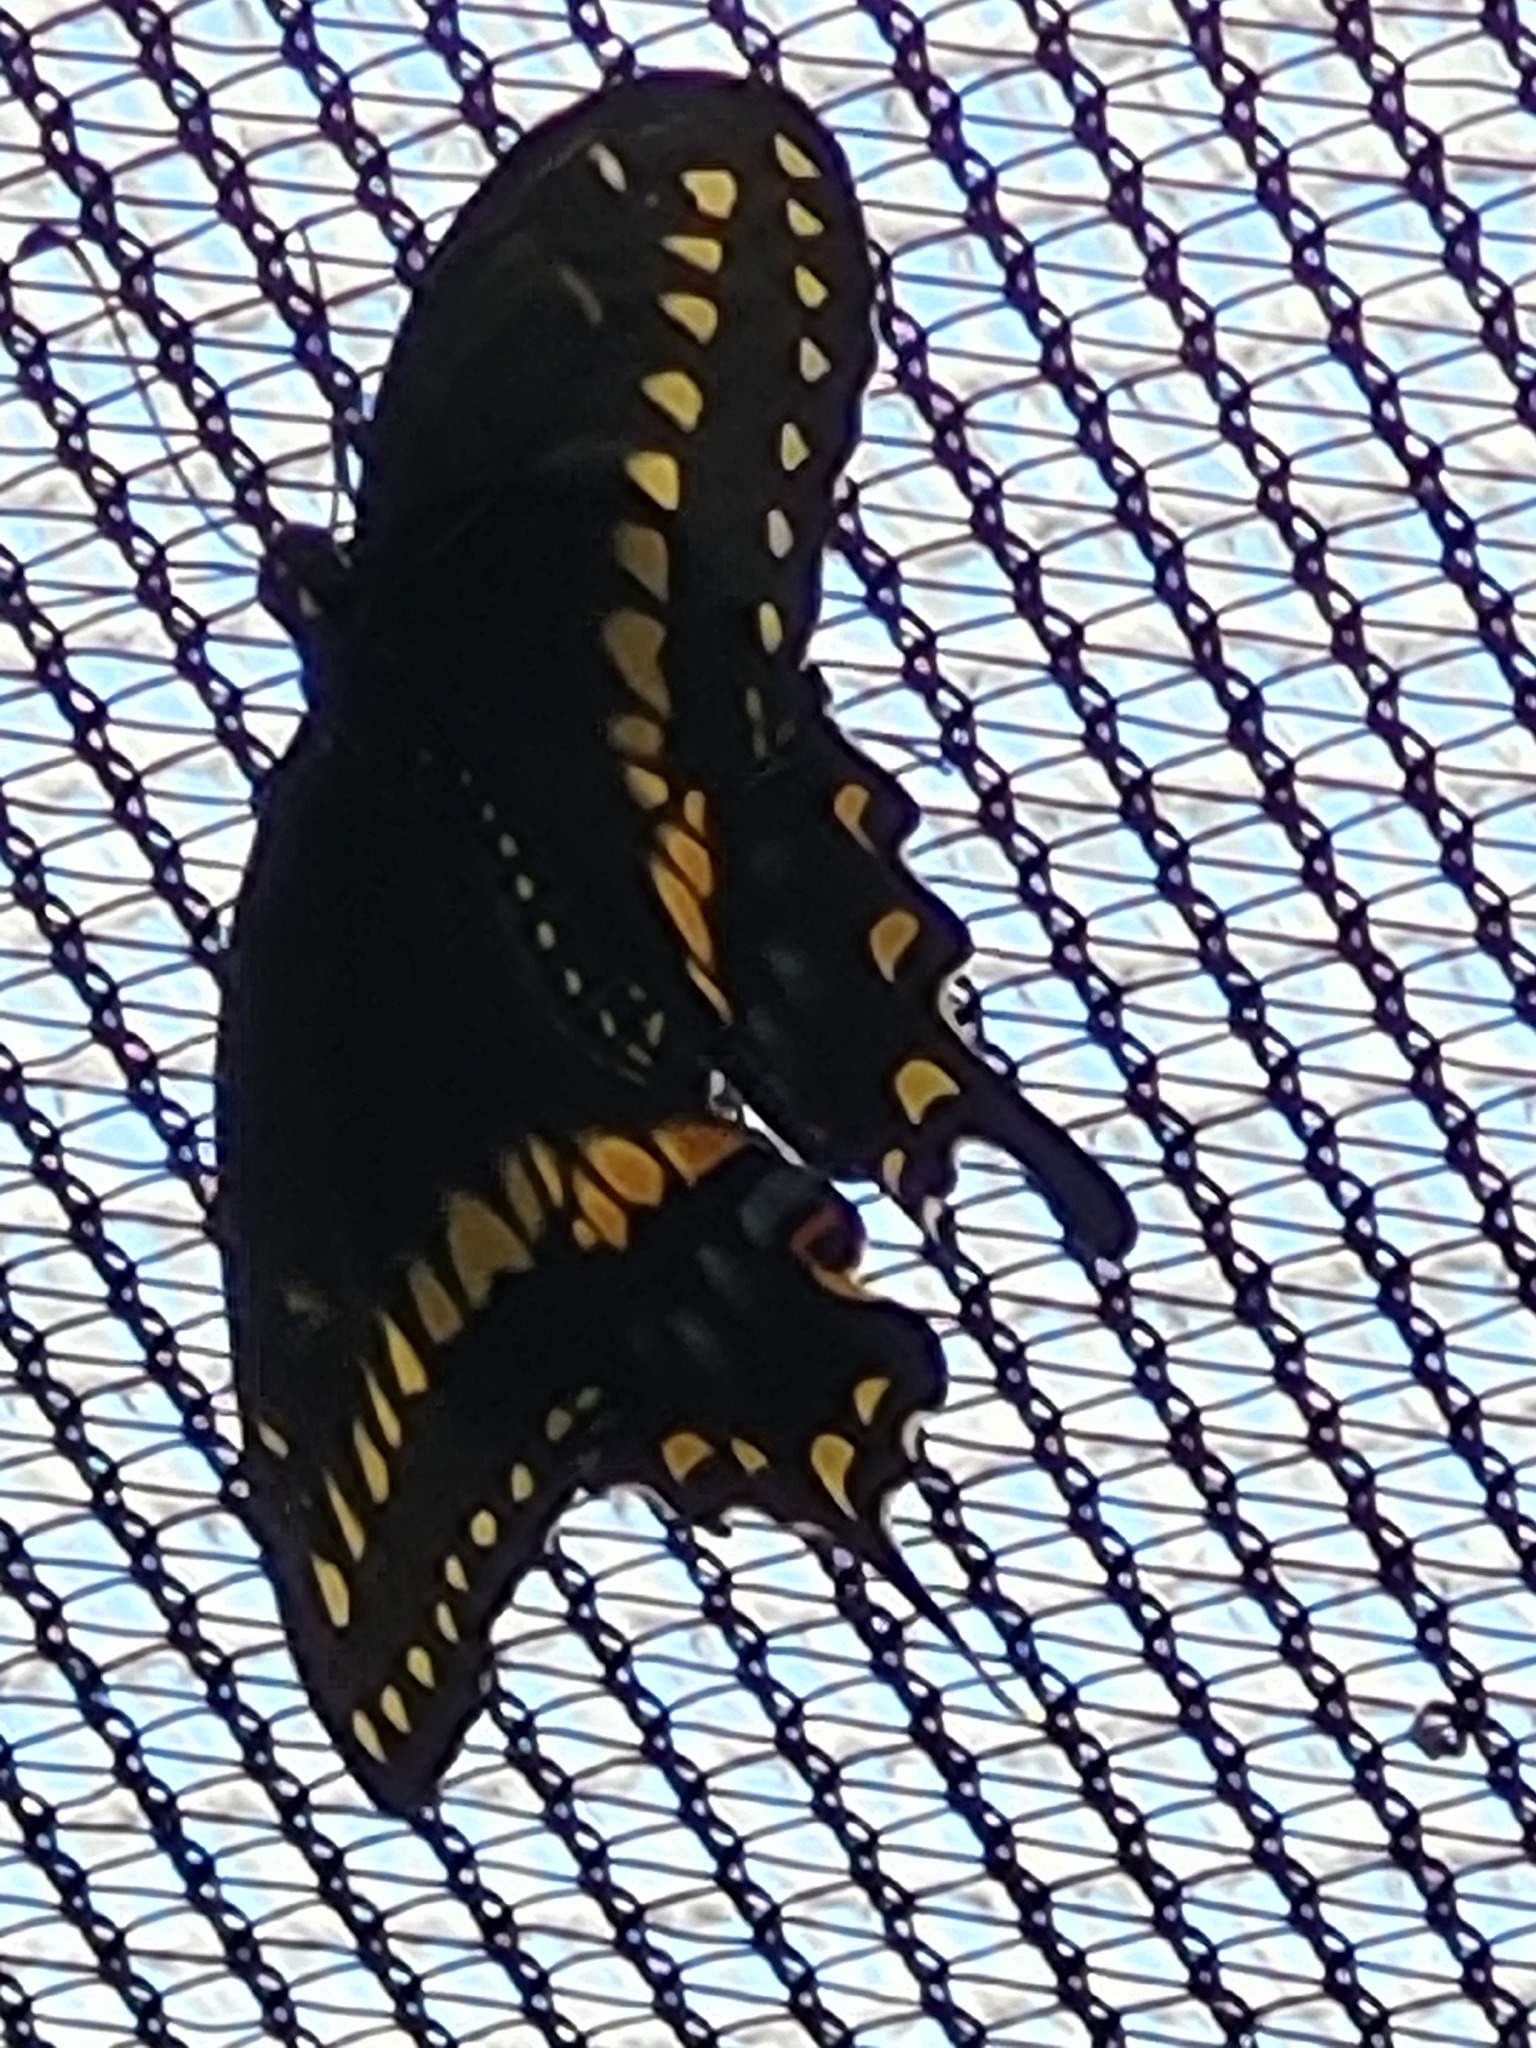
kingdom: Animalia
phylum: Arthropoda
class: Insecta
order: Lepidoptera
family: Papilionidae
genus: Papilio
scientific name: Papilio polyxenes
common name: Black swallowtail
